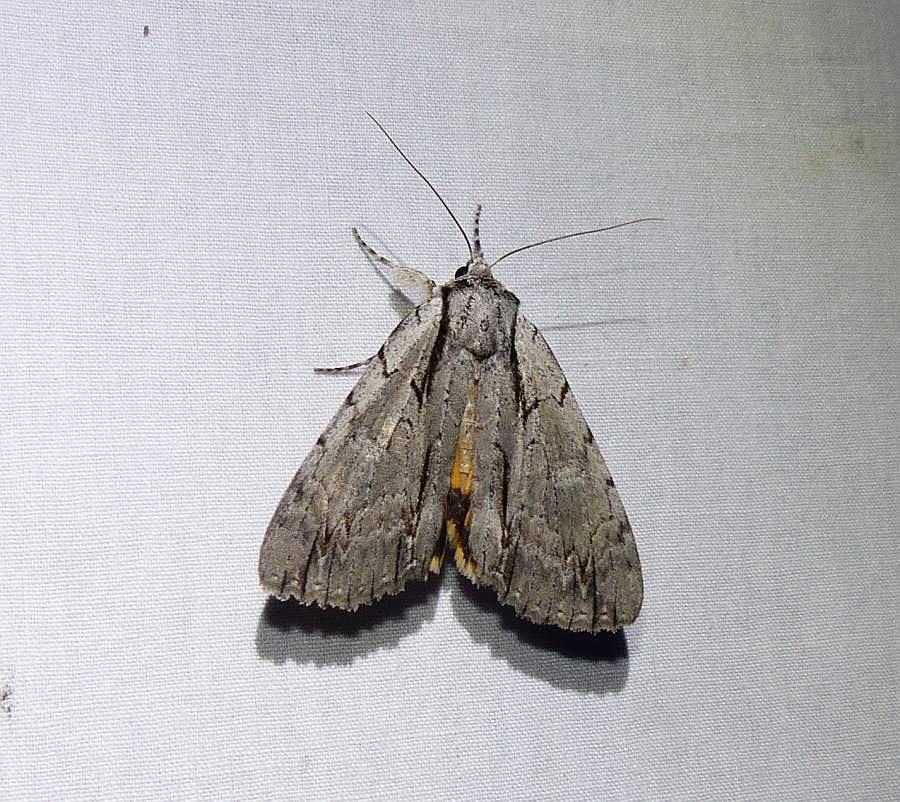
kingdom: Animalia
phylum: Arthropoda
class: Insecta
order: Lepidoptera
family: Erebidae
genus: Catocala
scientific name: Catocala clintonii
